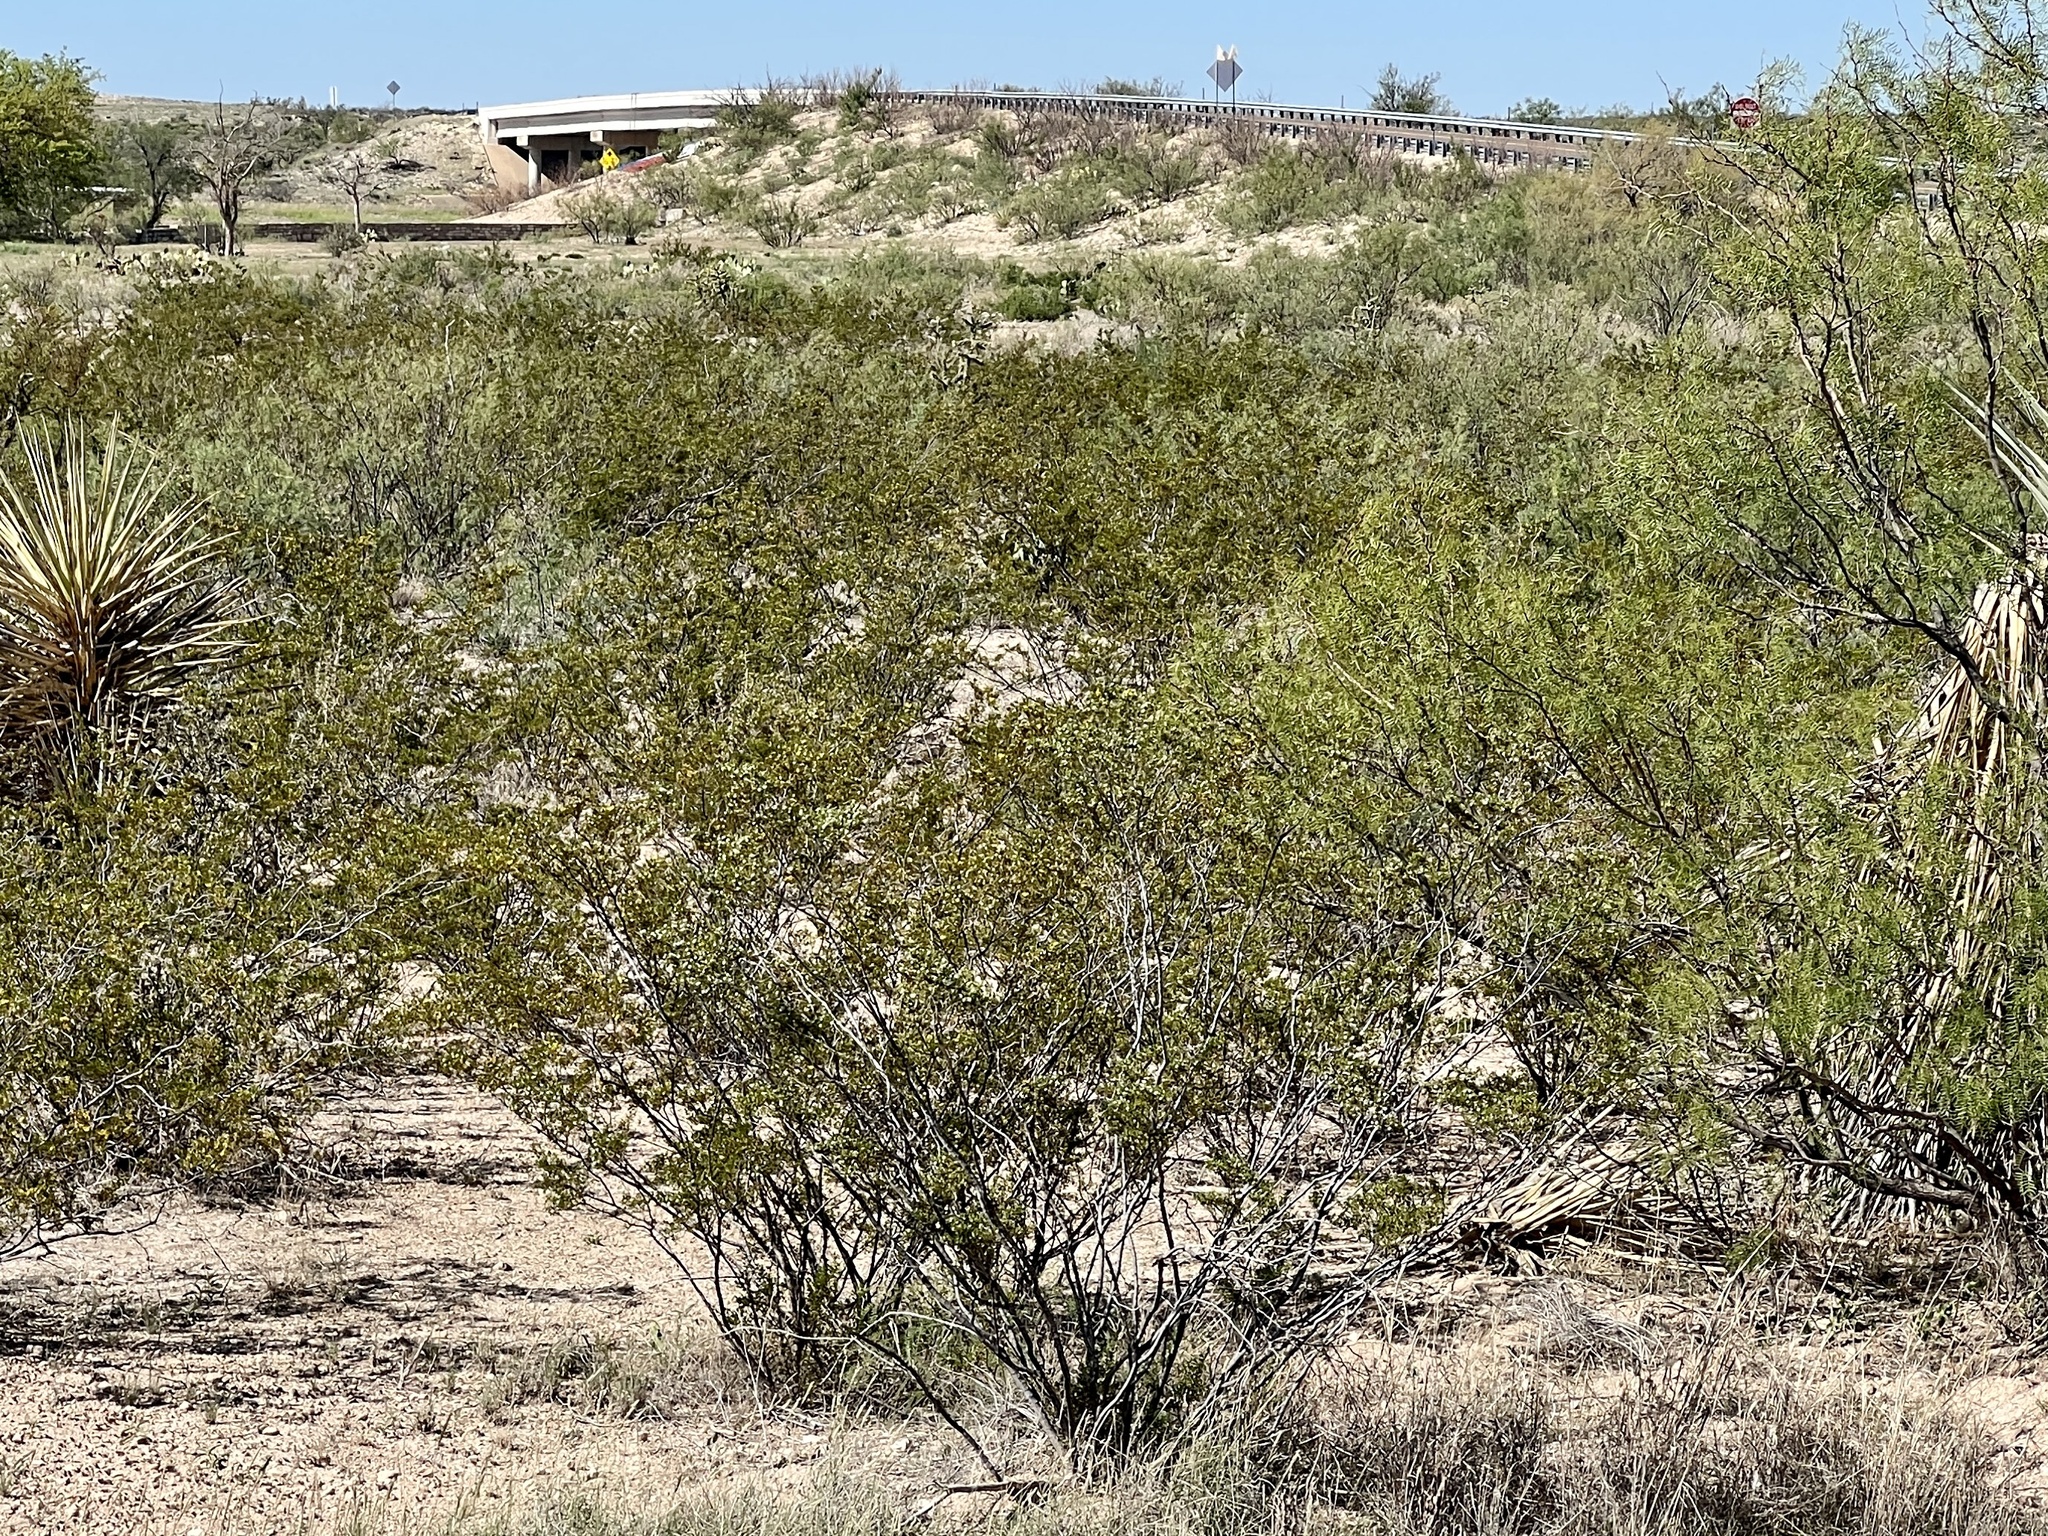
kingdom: Plantae
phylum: Tracheophyta
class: Magnoliopsida
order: Zygophyllales
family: Zygophyllaceae
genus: Larrea
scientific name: Larrea tridentata
